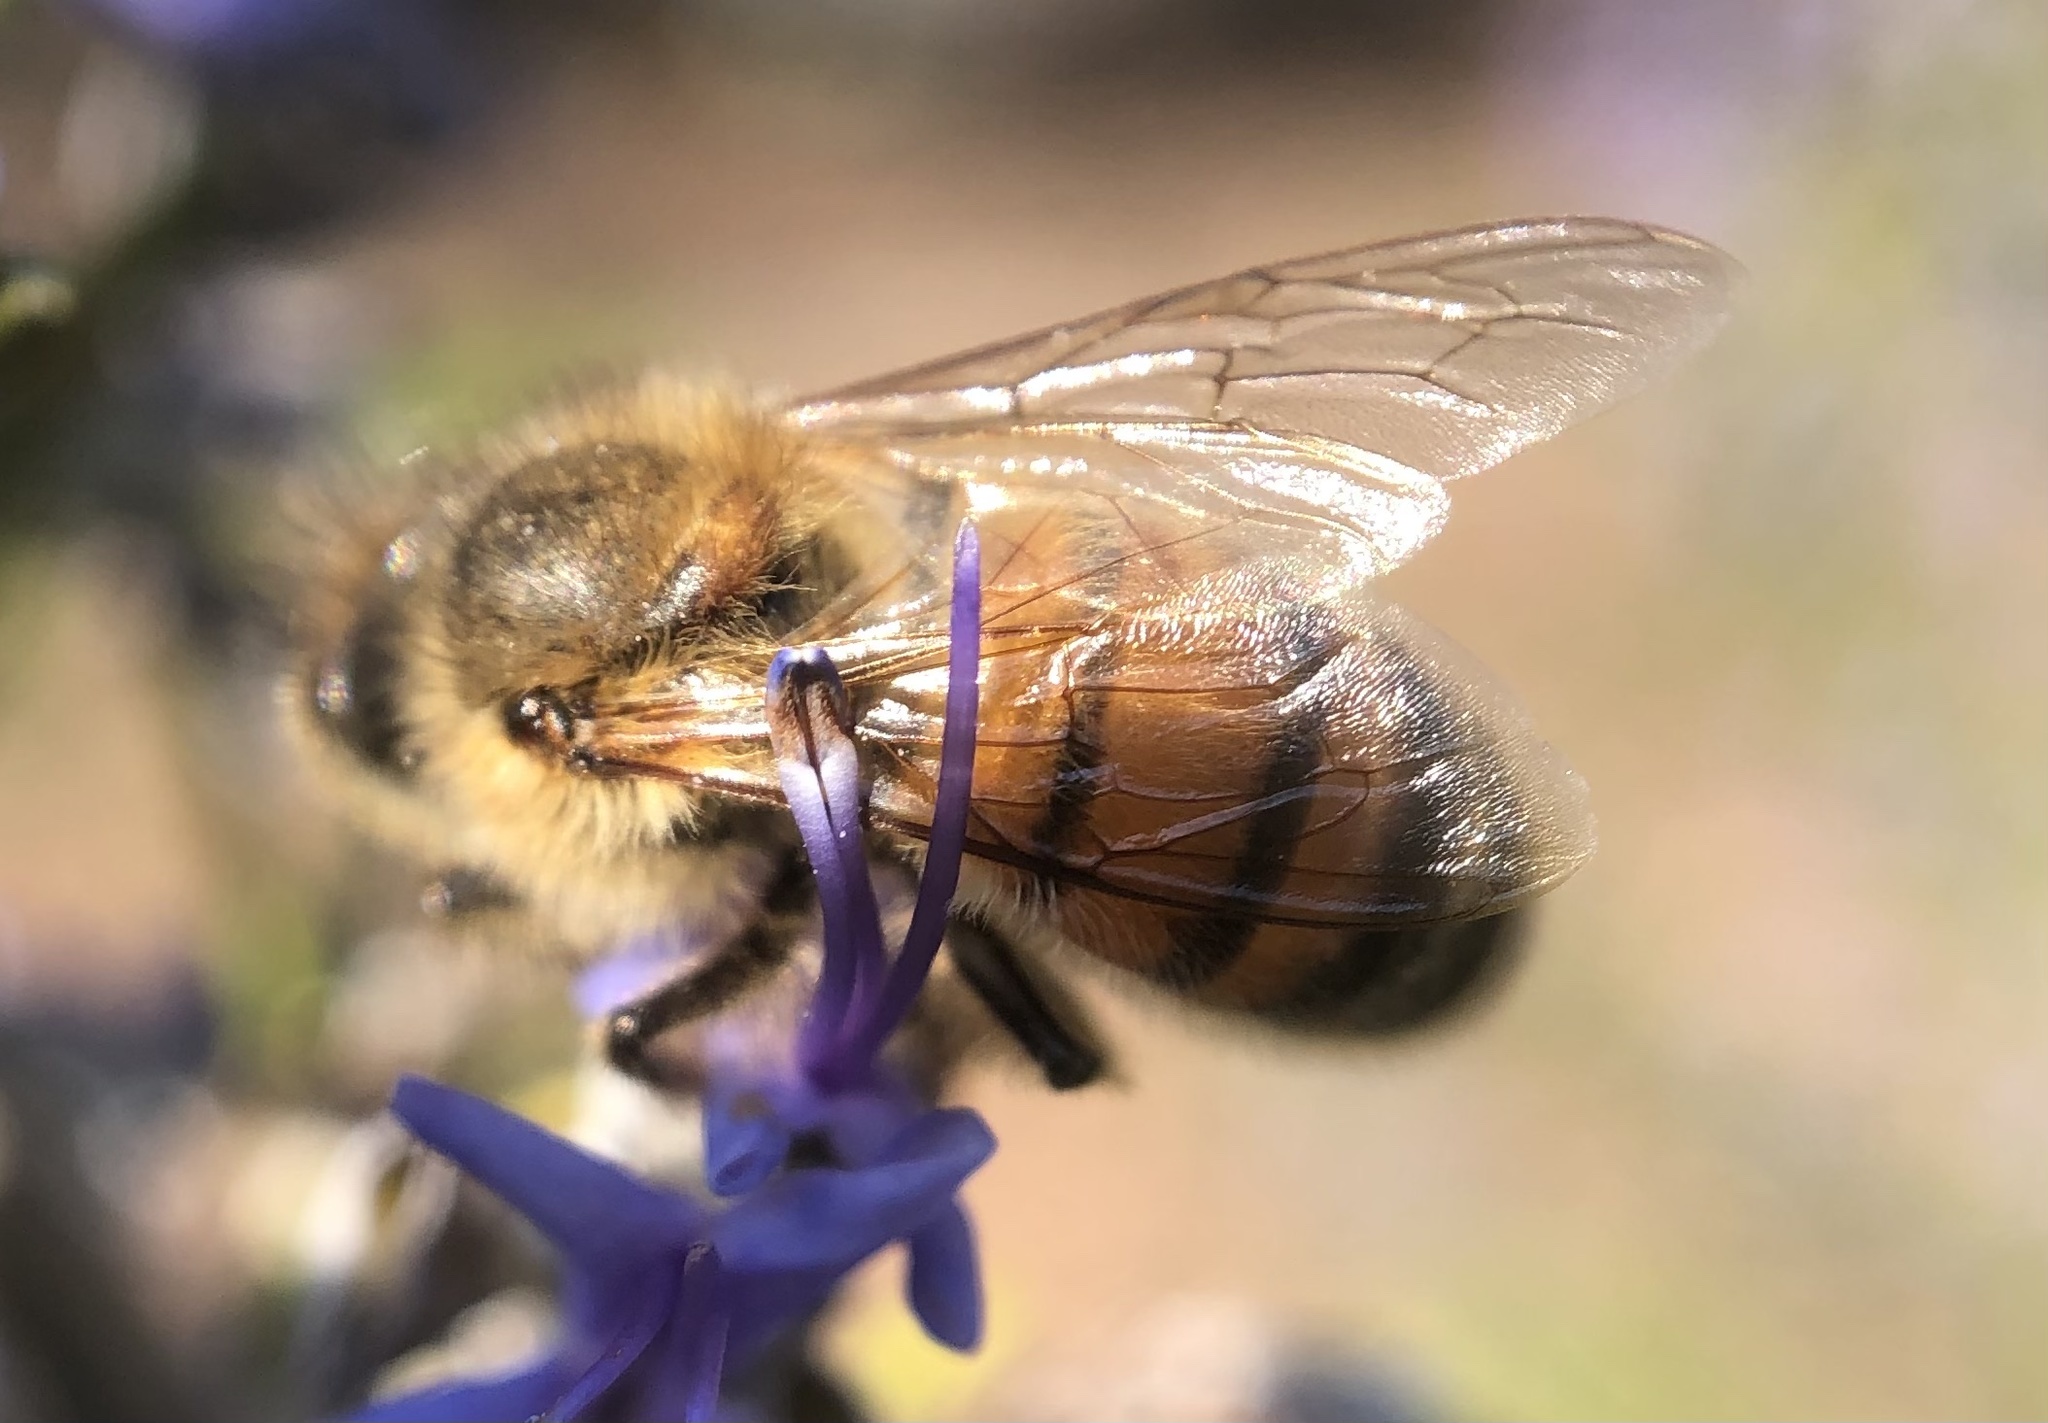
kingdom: Animalia
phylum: Arthropoda
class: Insecta
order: Hymenoptera
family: Apidae
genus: Apis
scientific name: Apis mellifera
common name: Honey bee
